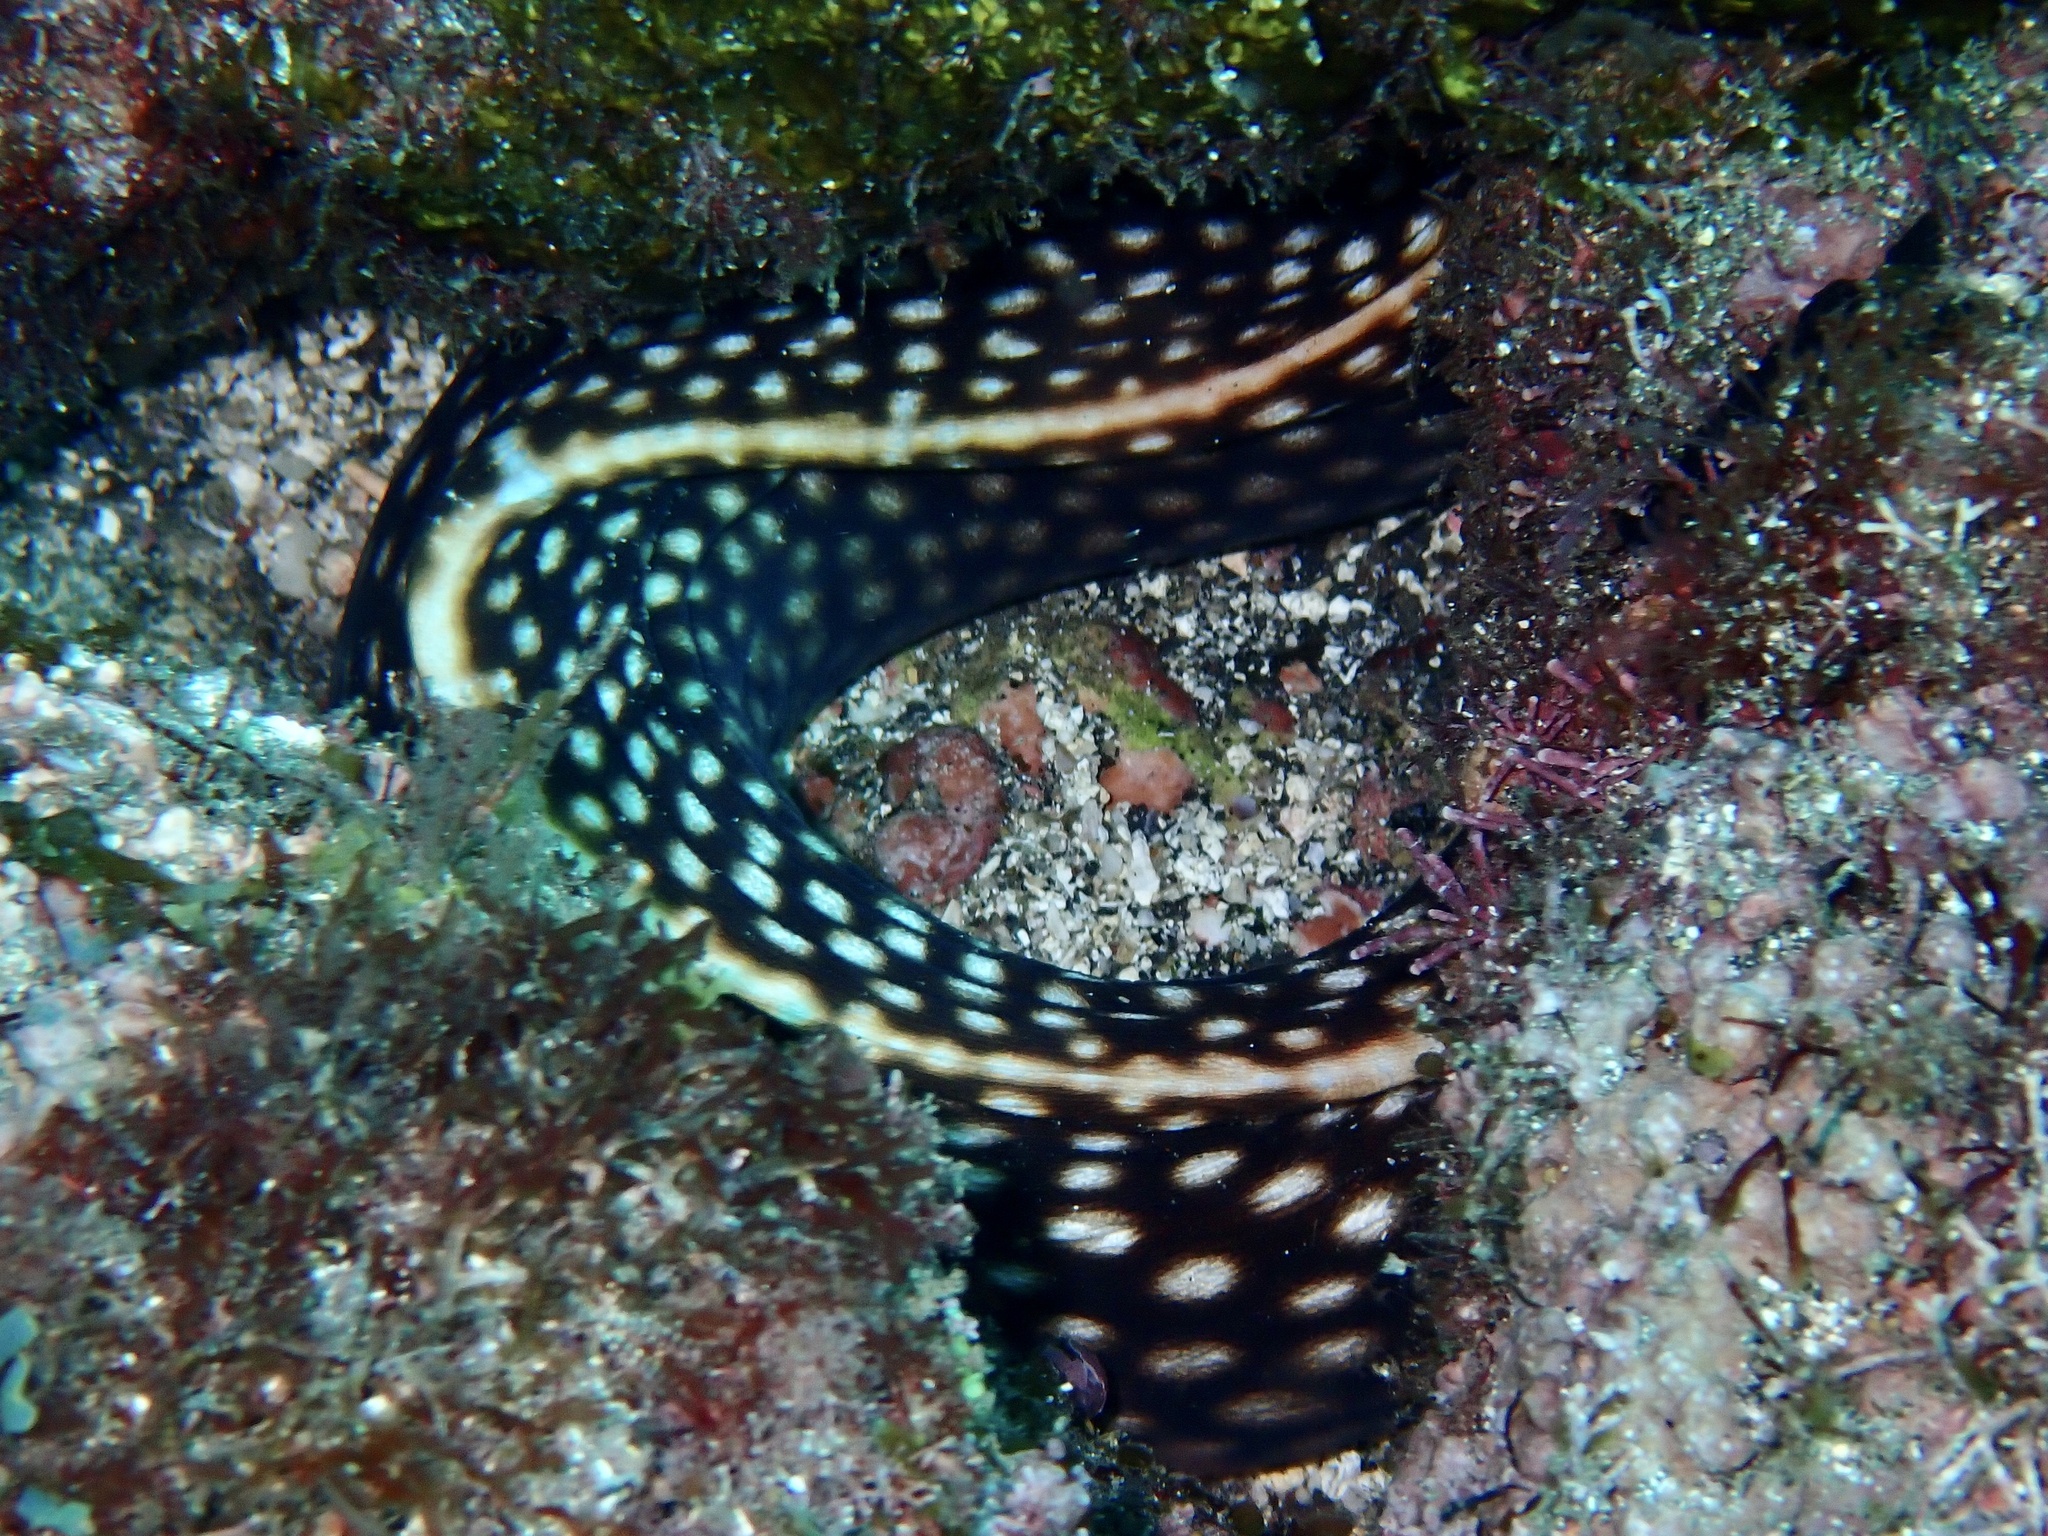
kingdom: Animalia
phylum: Chordata
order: Anguilliformes
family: Muraenidae
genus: Muraena
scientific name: Muraena melanotis
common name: Honeycomb moray
